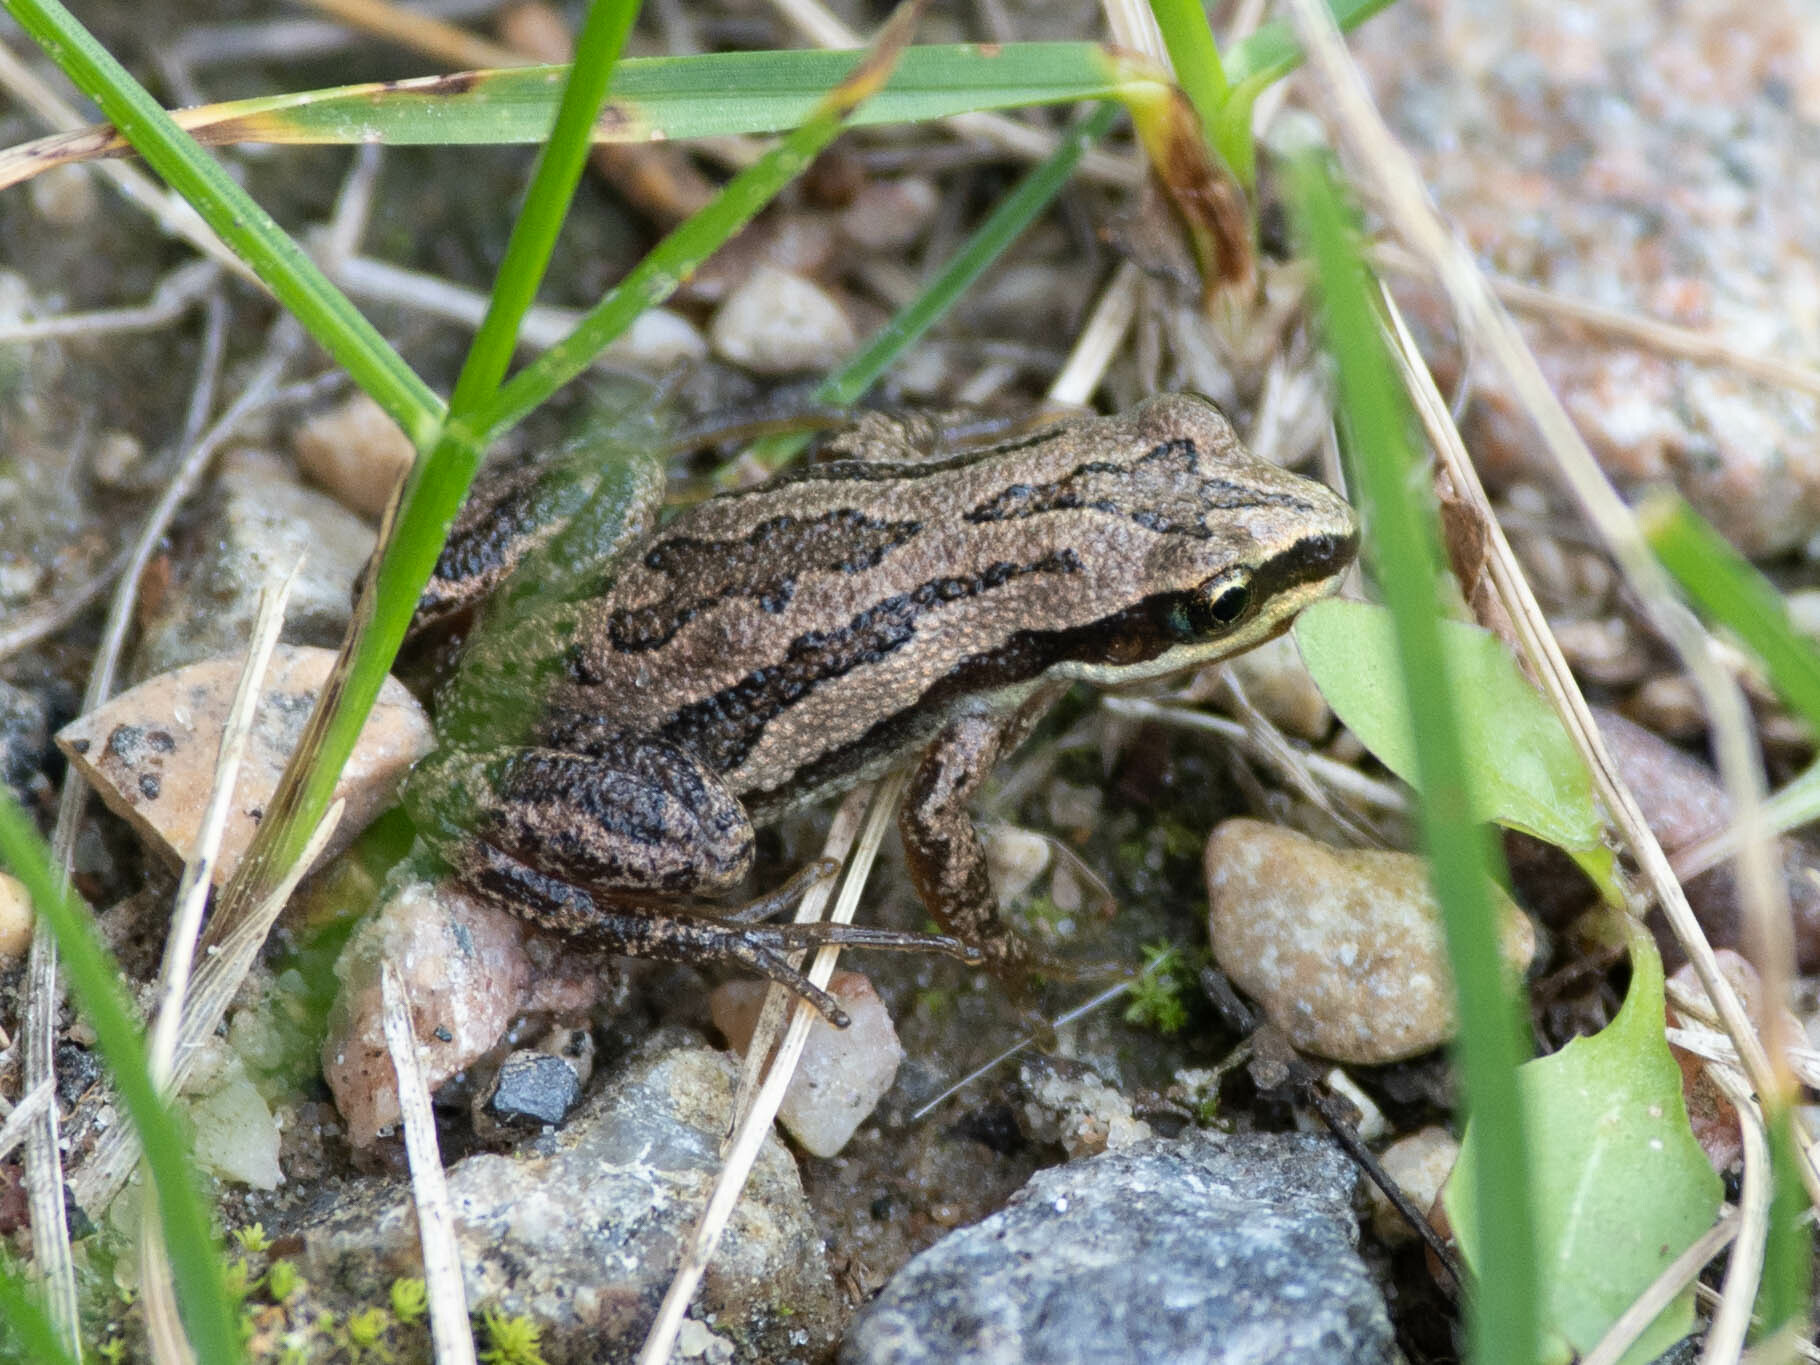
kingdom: Animalia
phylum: Chordata
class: Amphibia
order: Anura
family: Hylidae
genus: Pseudacris
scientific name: Pseudacris maculata
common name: Boreal chorus frog
